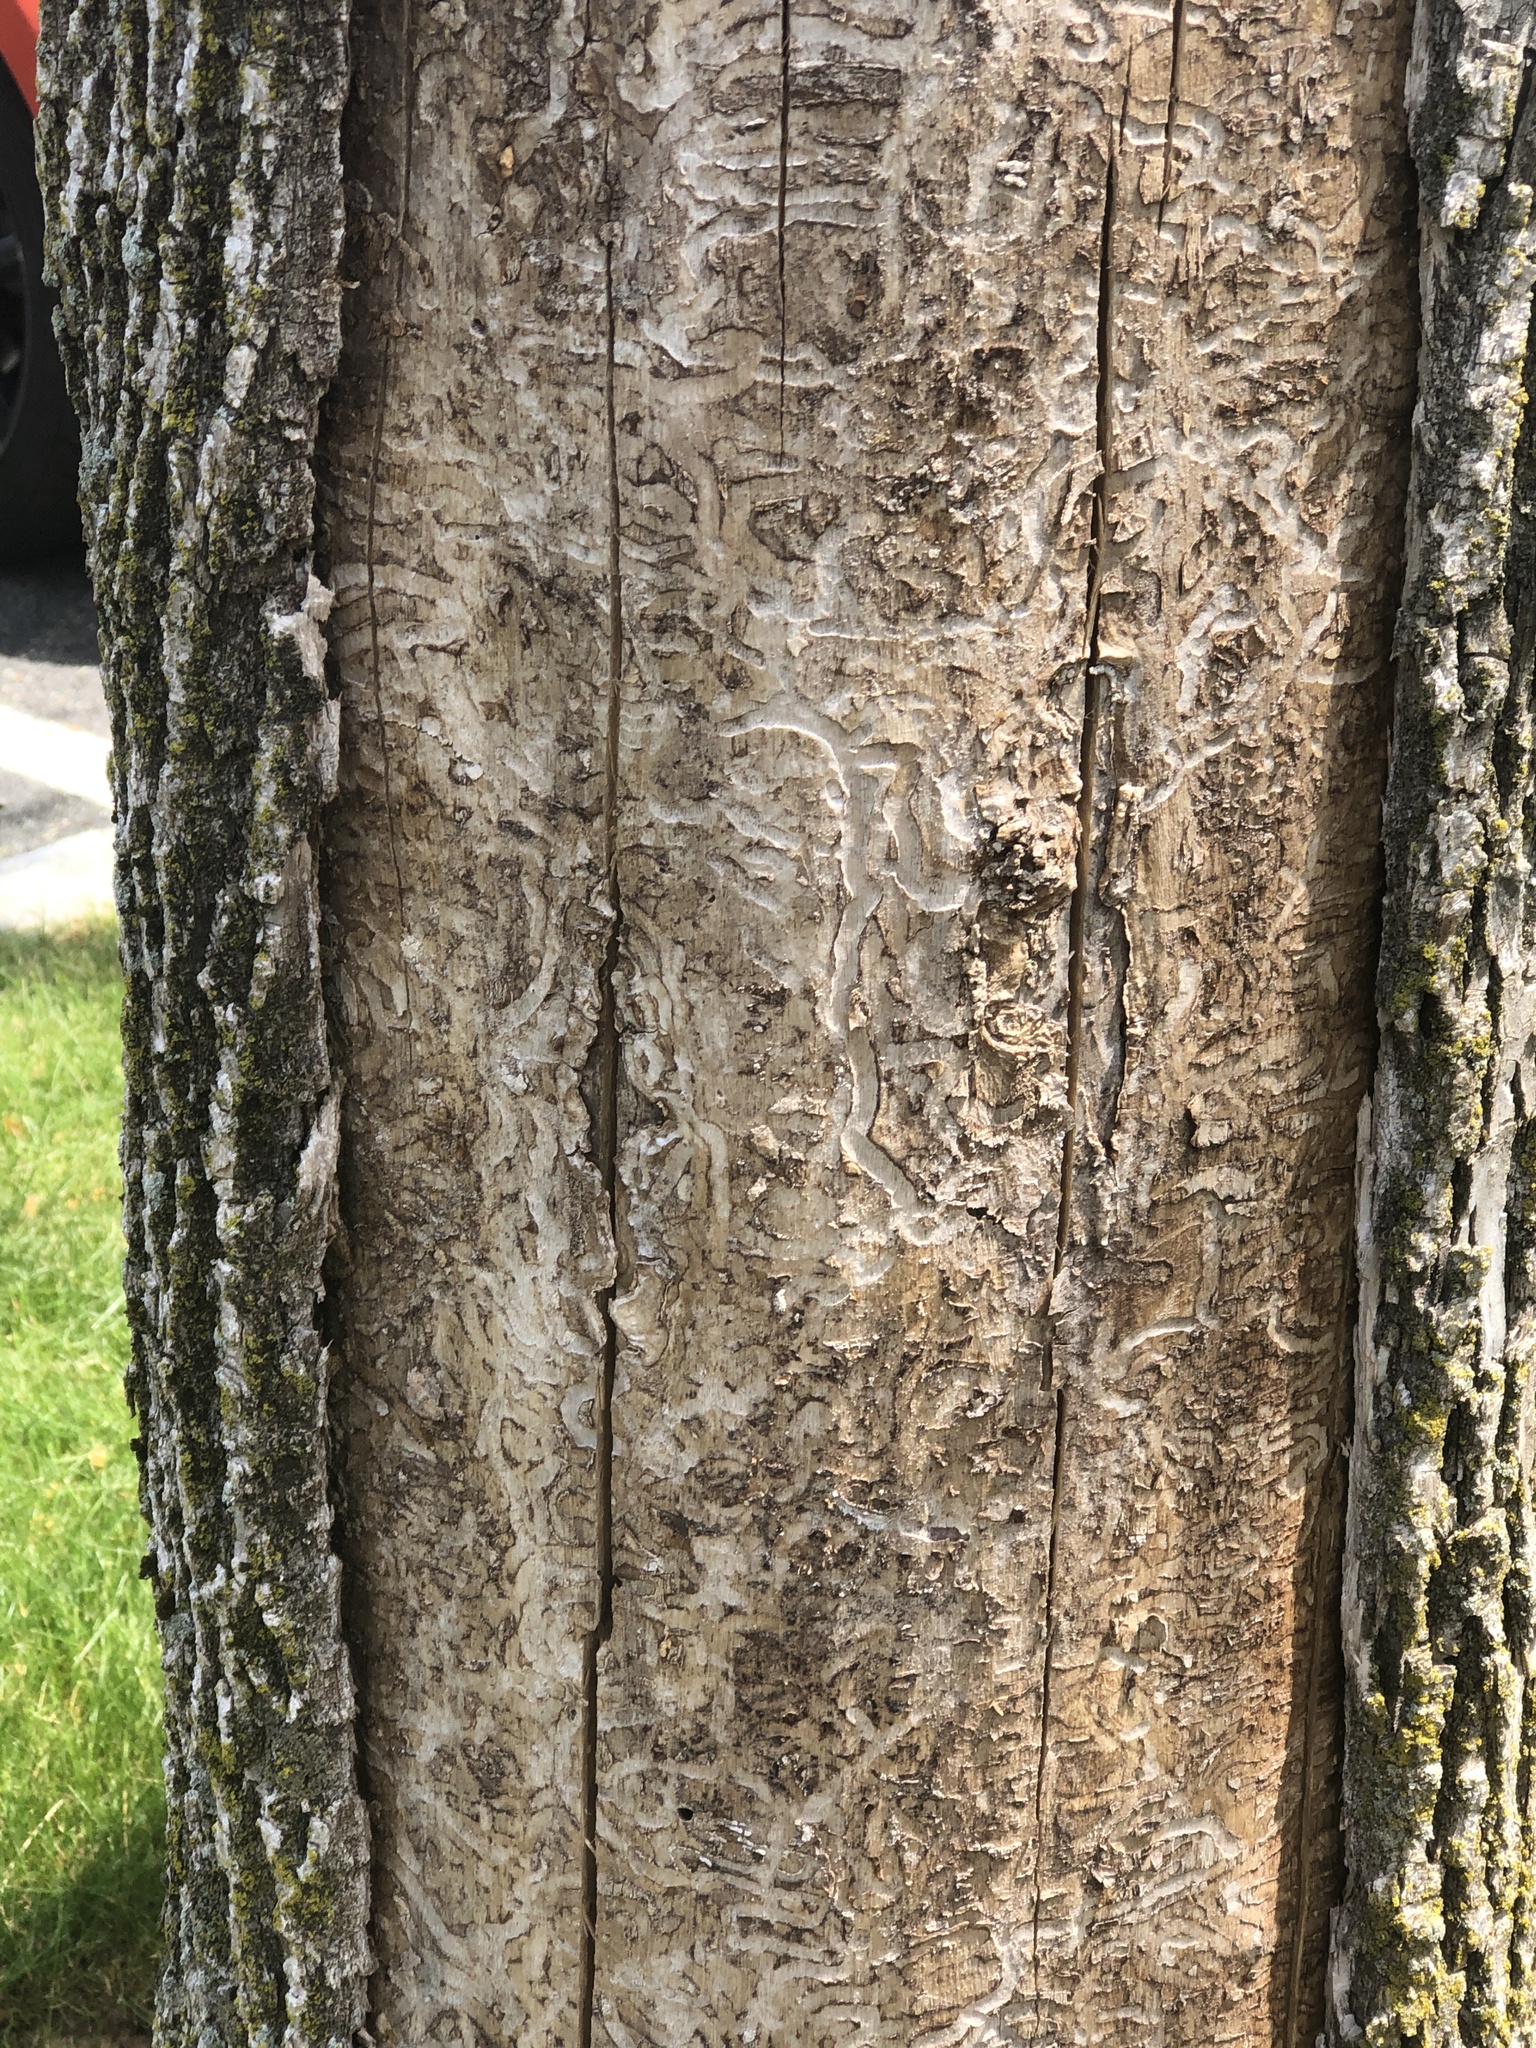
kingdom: Animalia
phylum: Arthropoda
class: Insecta
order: Coleoptera
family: Buprestidae
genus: Agrilus
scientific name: Agrilus planipennis
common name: Emerald ash borer
